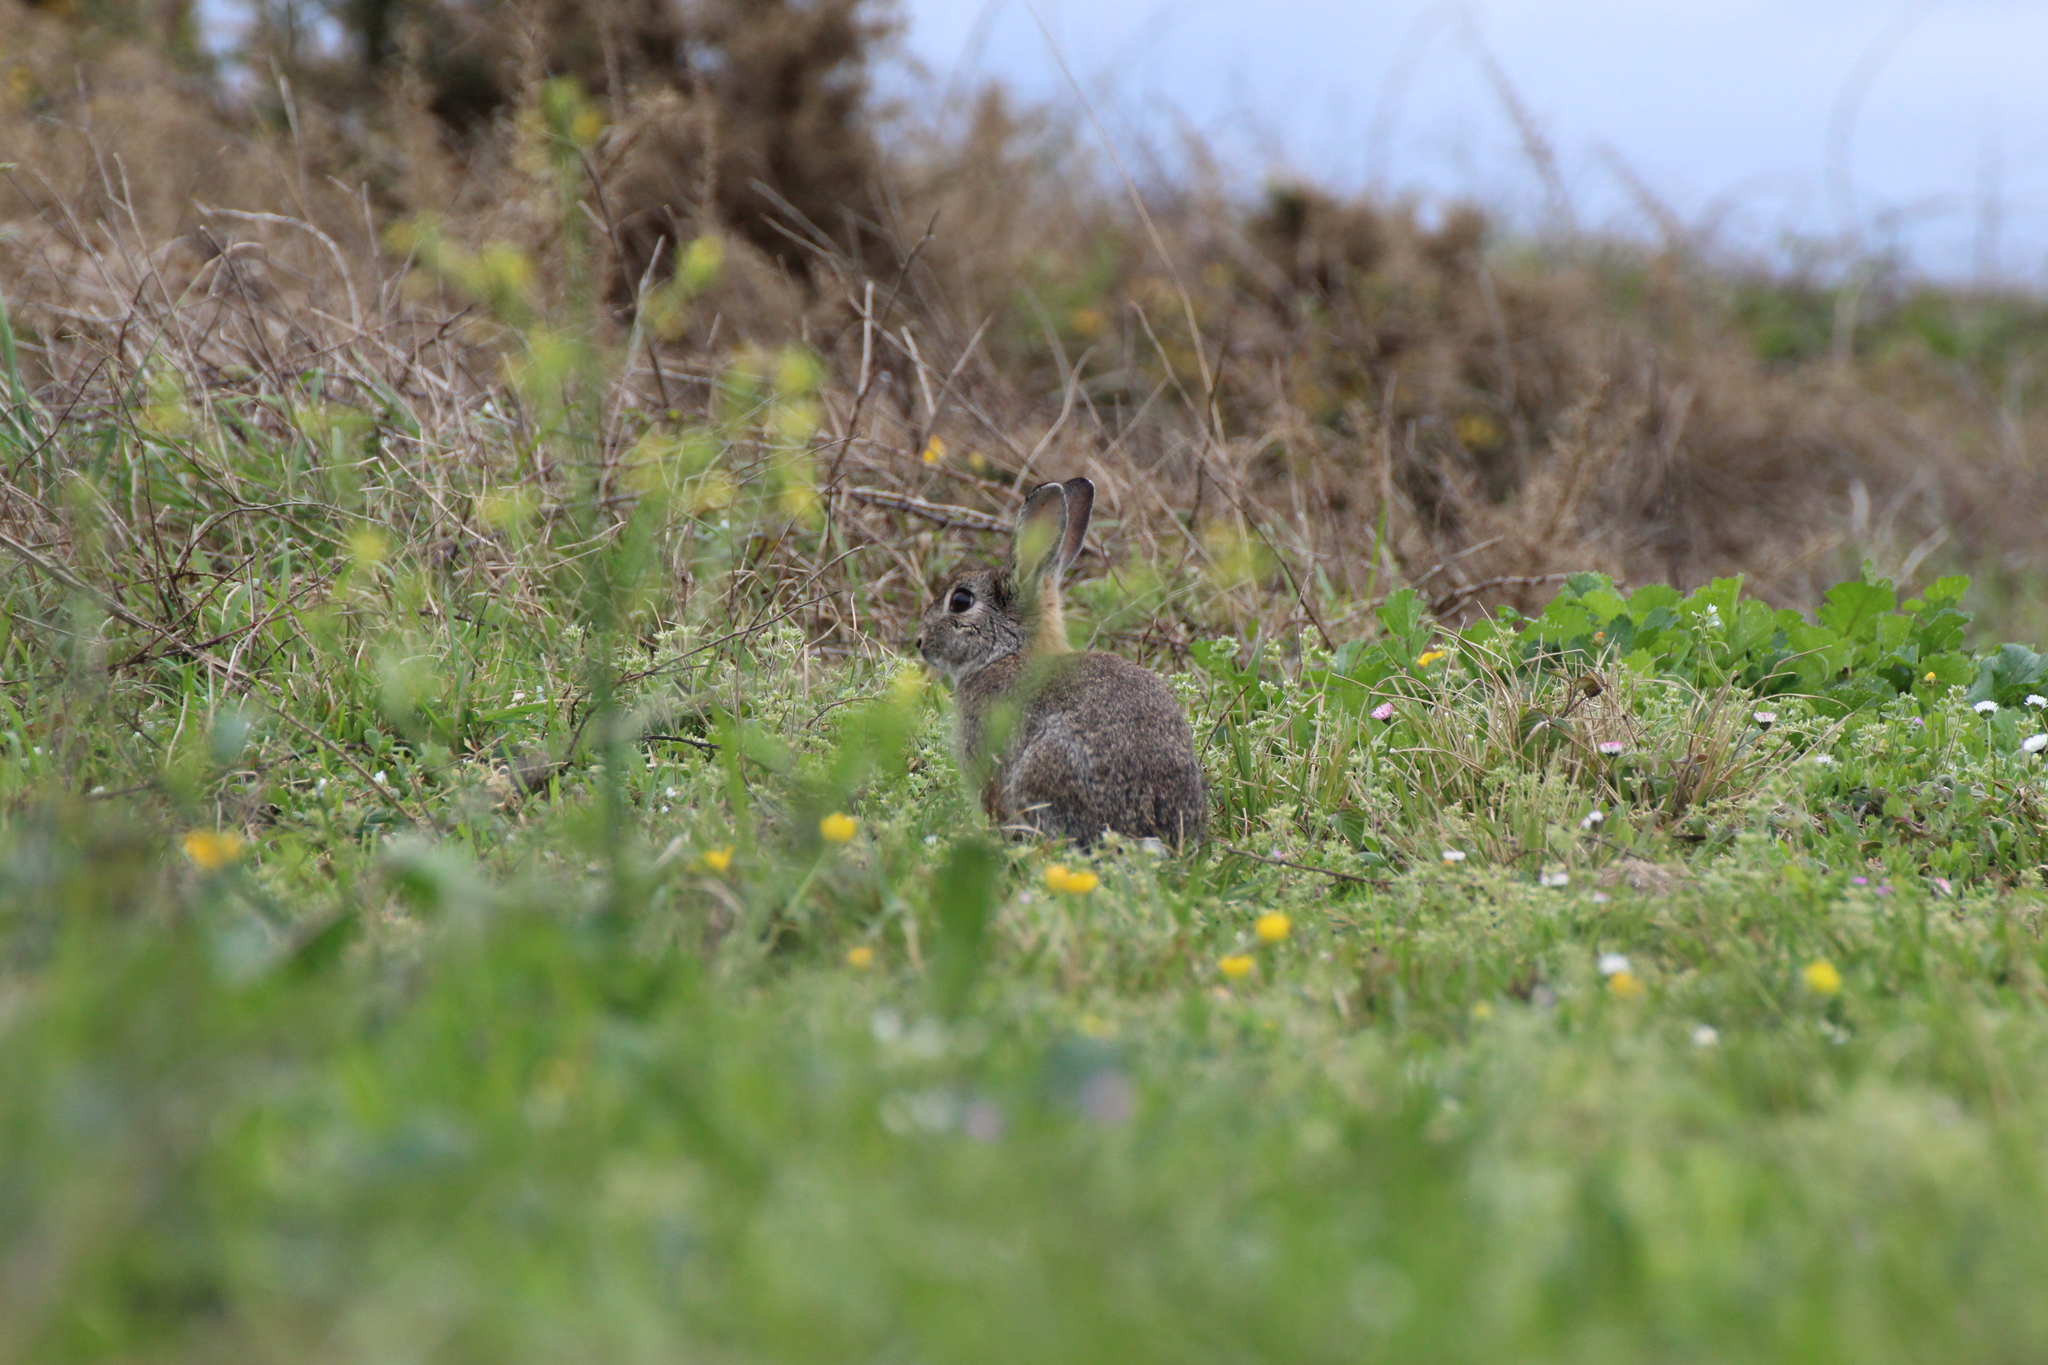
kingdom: Animalia
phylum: Chordata
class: Mammalia
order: Lagomorpha
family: Leporidae
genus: Oryctolagus
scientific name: Oryctolagus cuniculus
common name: European rabbit
